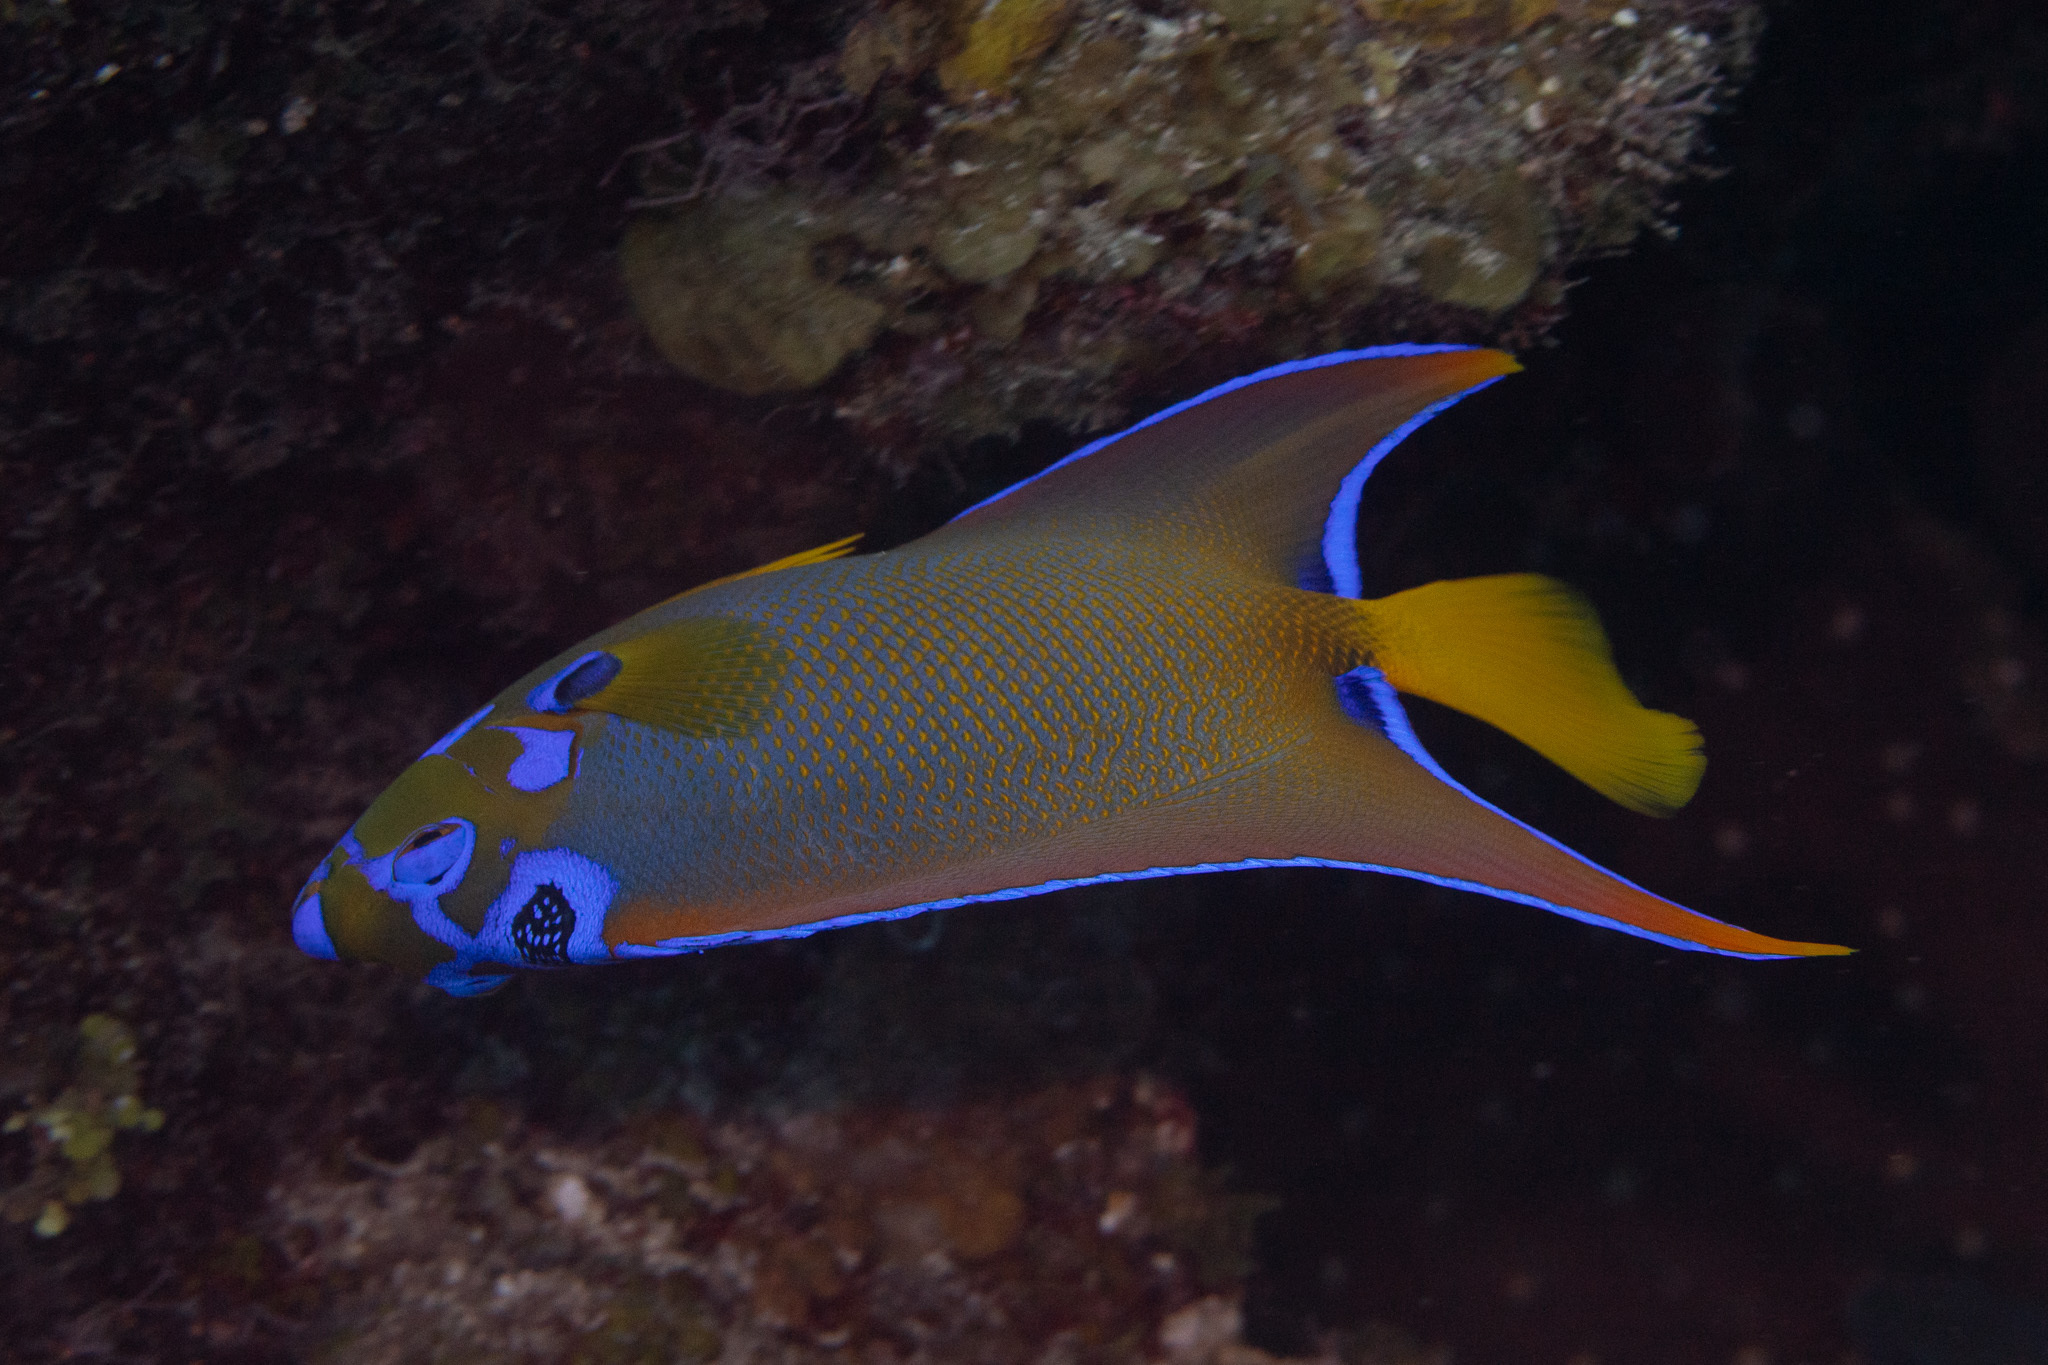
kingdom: Animalia
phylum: Chordata
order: Perciformes
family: Pomacanthidae
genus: Holacanthus
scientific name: Holacanthus ciliaris
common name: Queen angelfish
